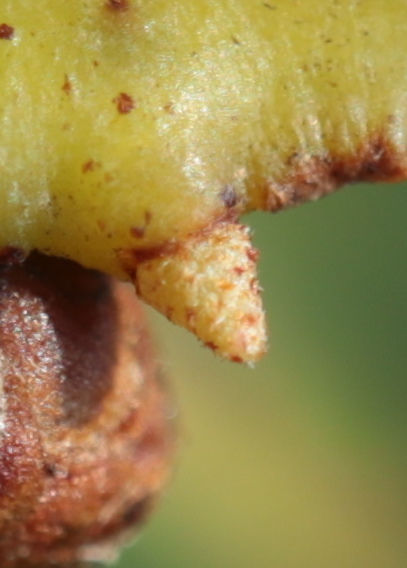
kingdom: Animalia
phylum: Arthropoda
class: Insecta
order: Hymenoptera
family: Cynipidae
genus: Zopheroteras
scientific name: Zopheroteras
